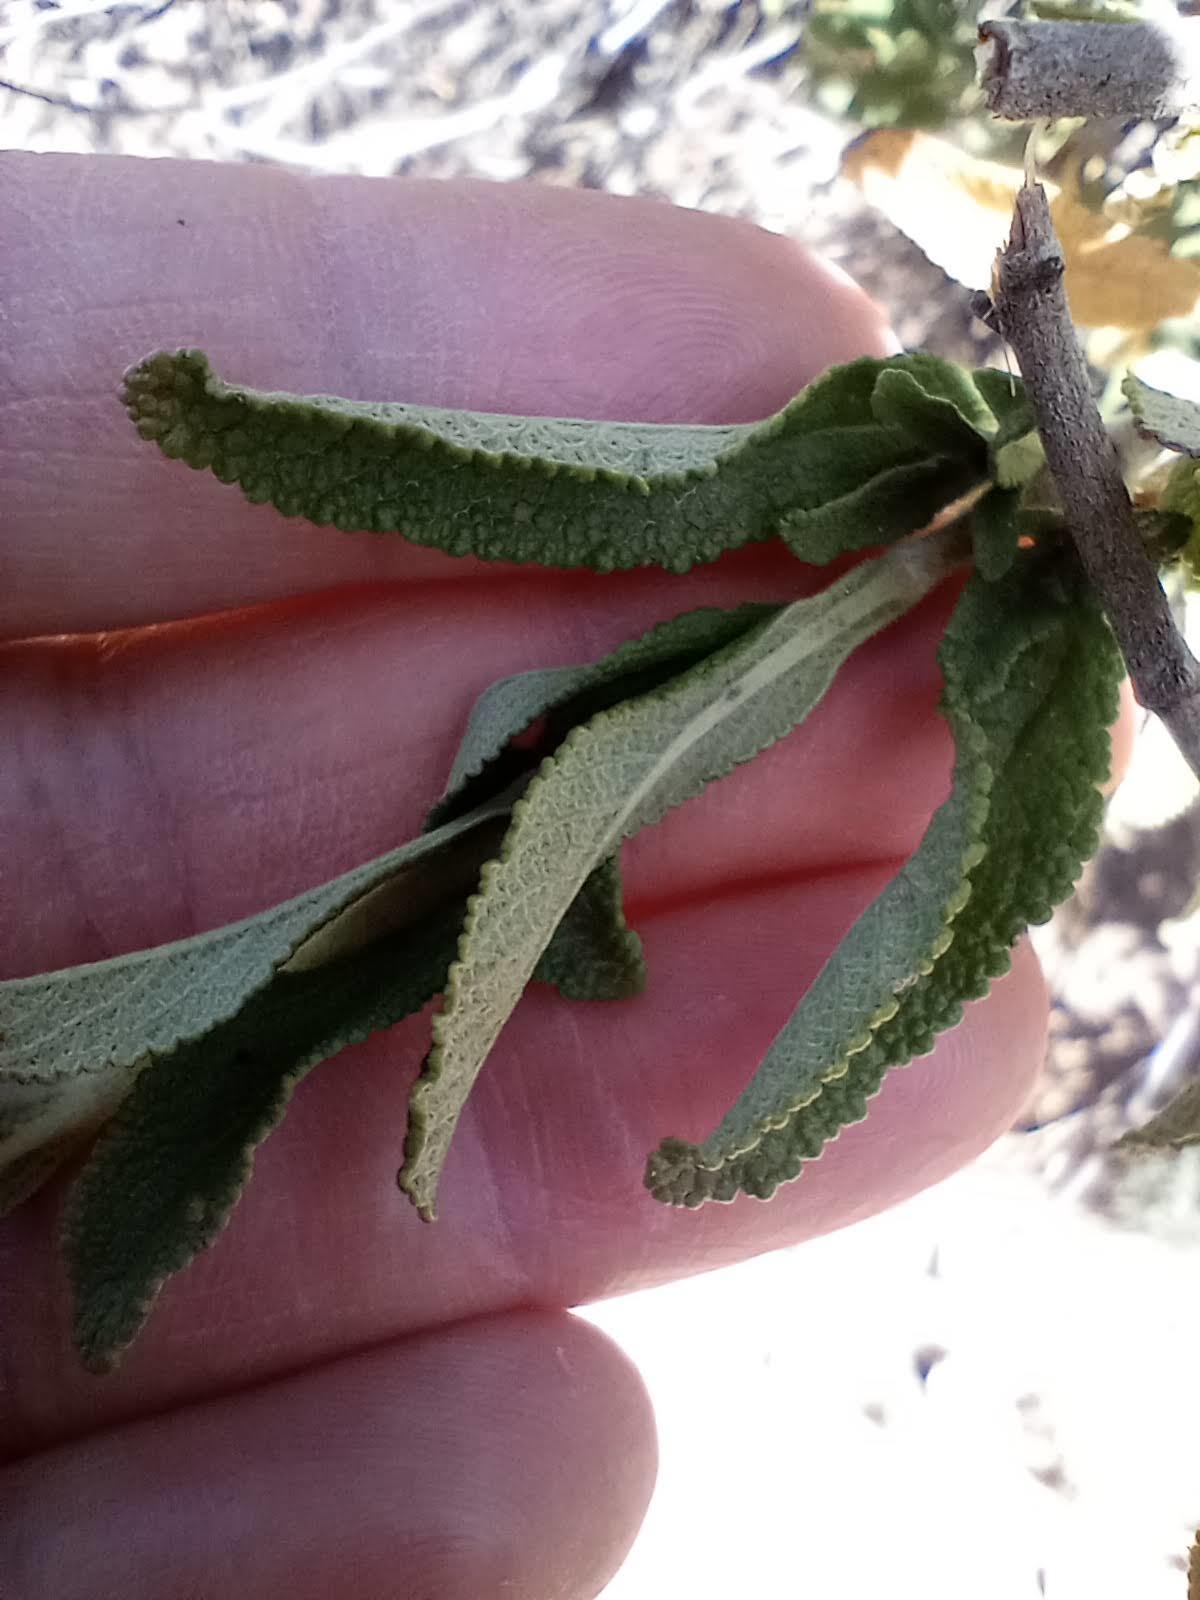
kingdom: Plantae
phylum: Tracheophyta
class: Magnoliopsida
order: Lamiales
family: Lamiaceae
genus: Salvia
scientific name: Salvia mellifera
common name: Black sage
